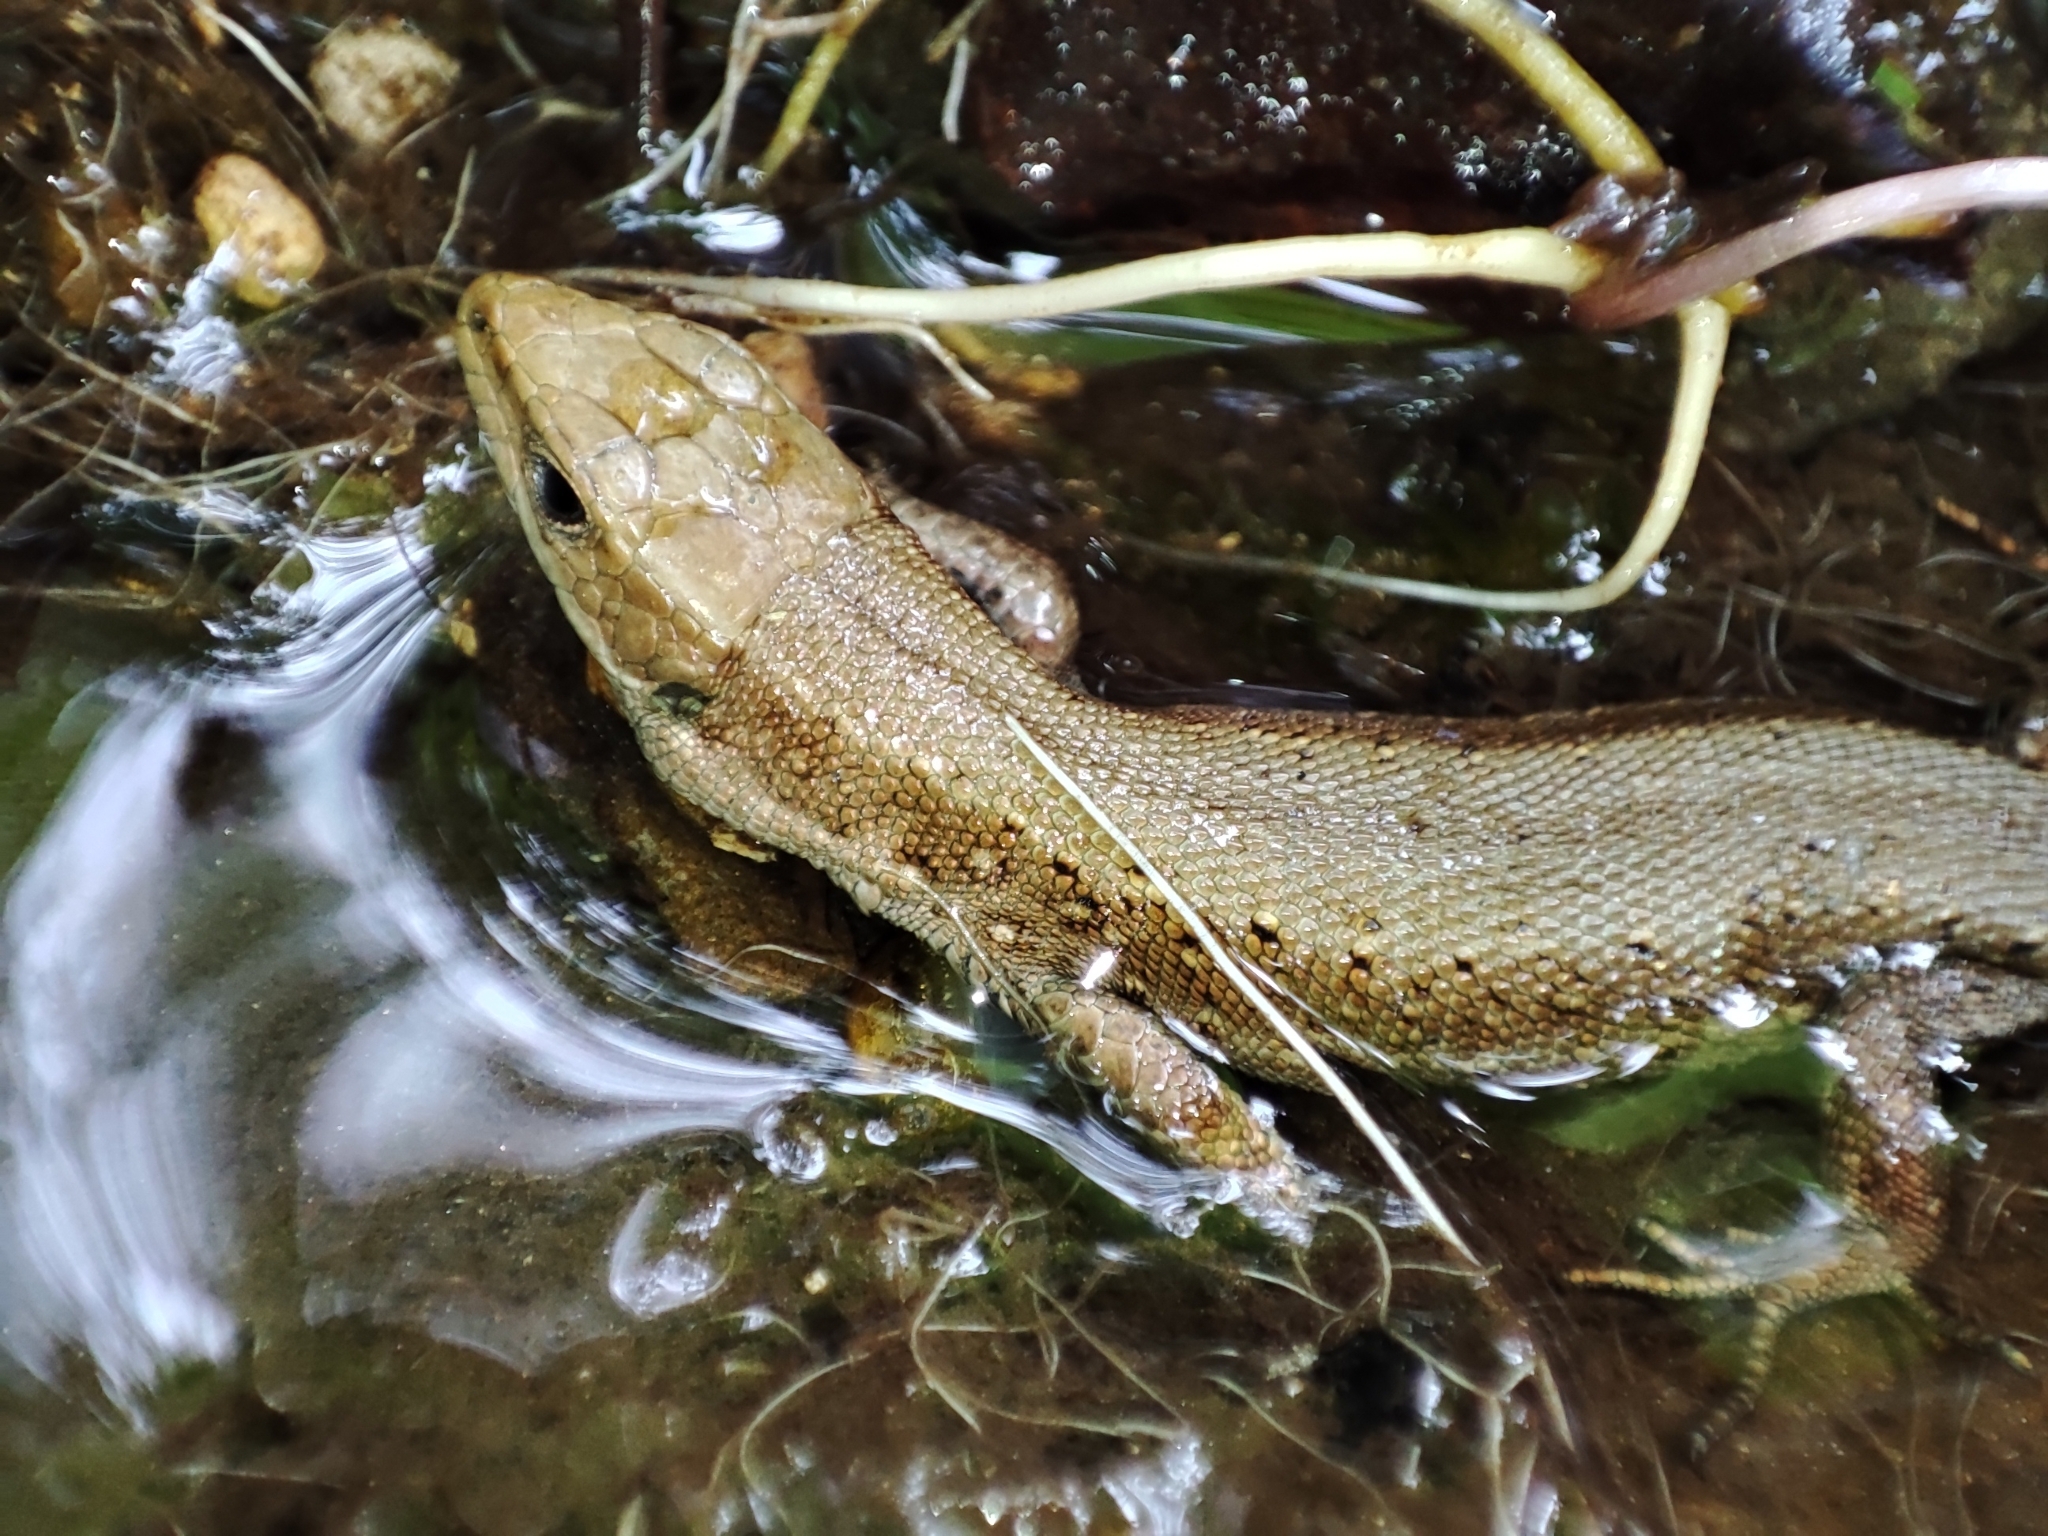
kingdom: Animalia
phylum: Chordata
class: Squamata
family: Lacertidae
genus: Zootoca
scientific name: Zootoca vivipara
